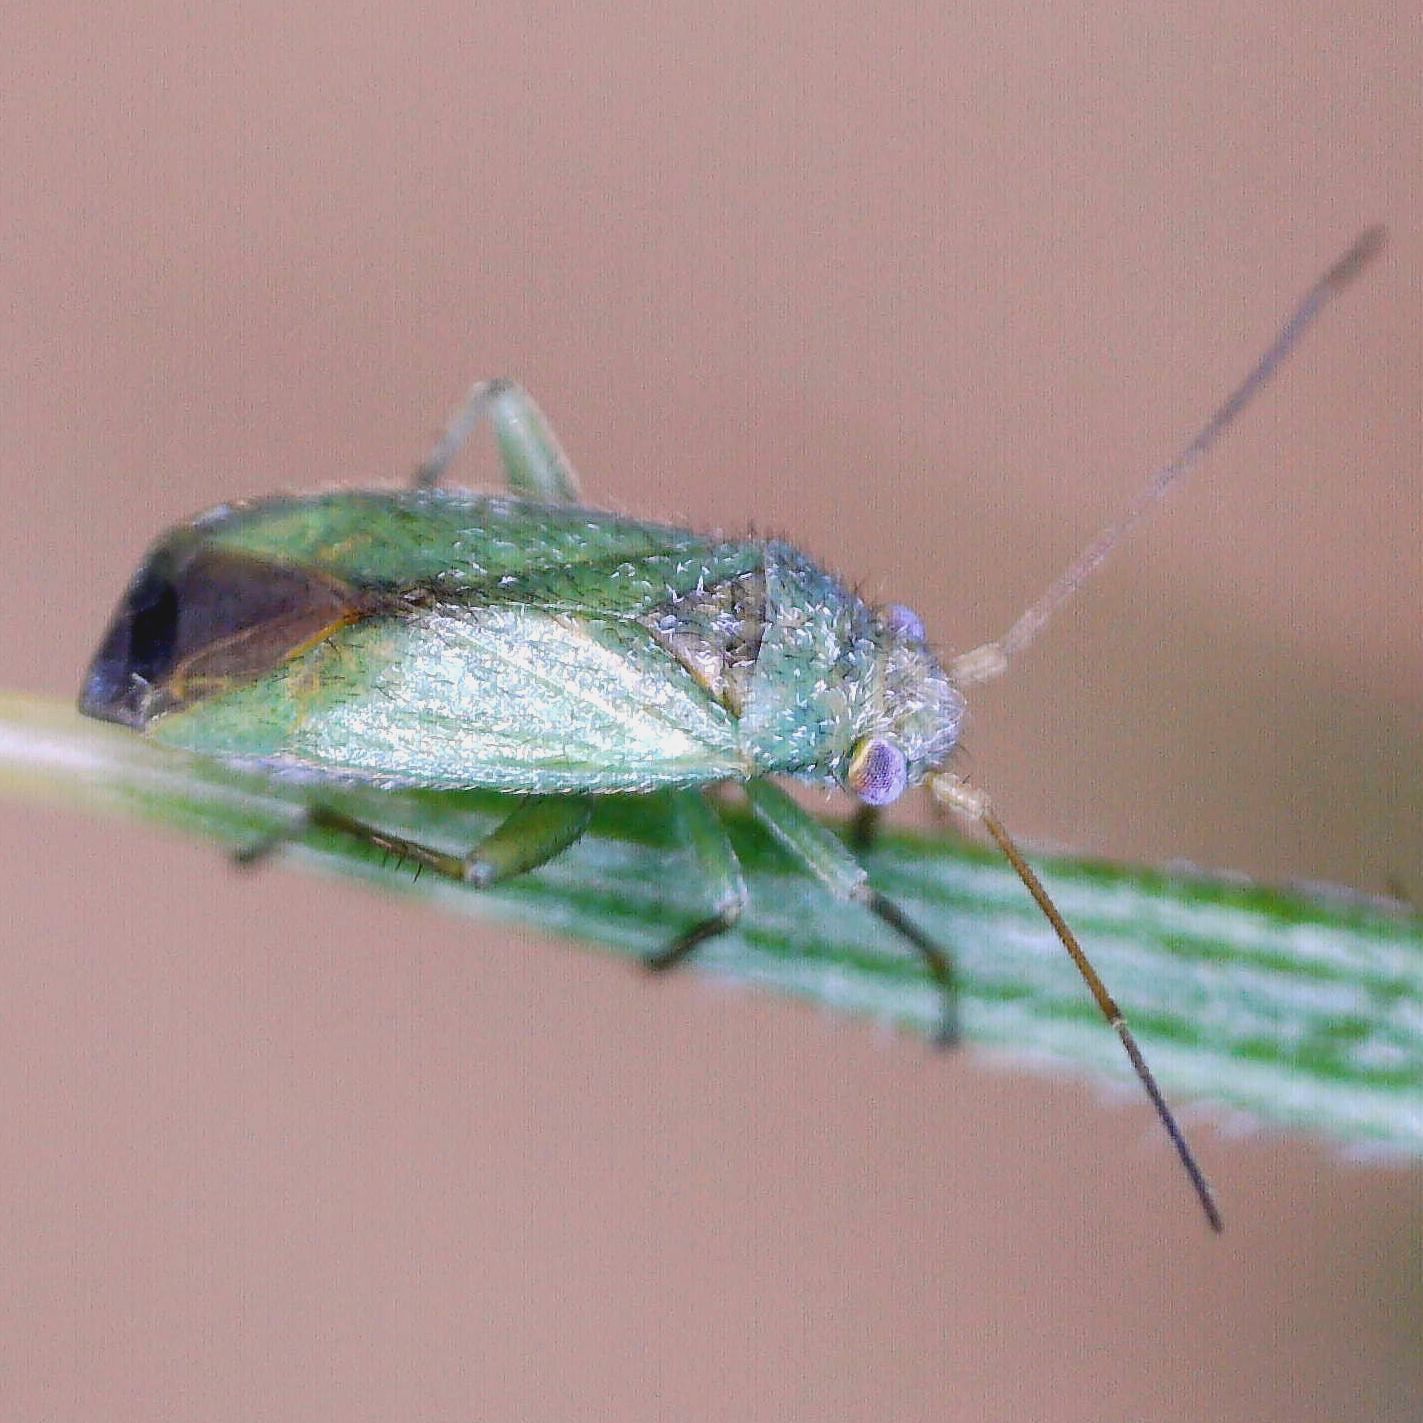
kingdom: Animalia
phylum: Arthropoda
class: Insecta
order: Hemiptera
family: Miridae
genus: Platycranus
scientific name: Platycranus bicolor
